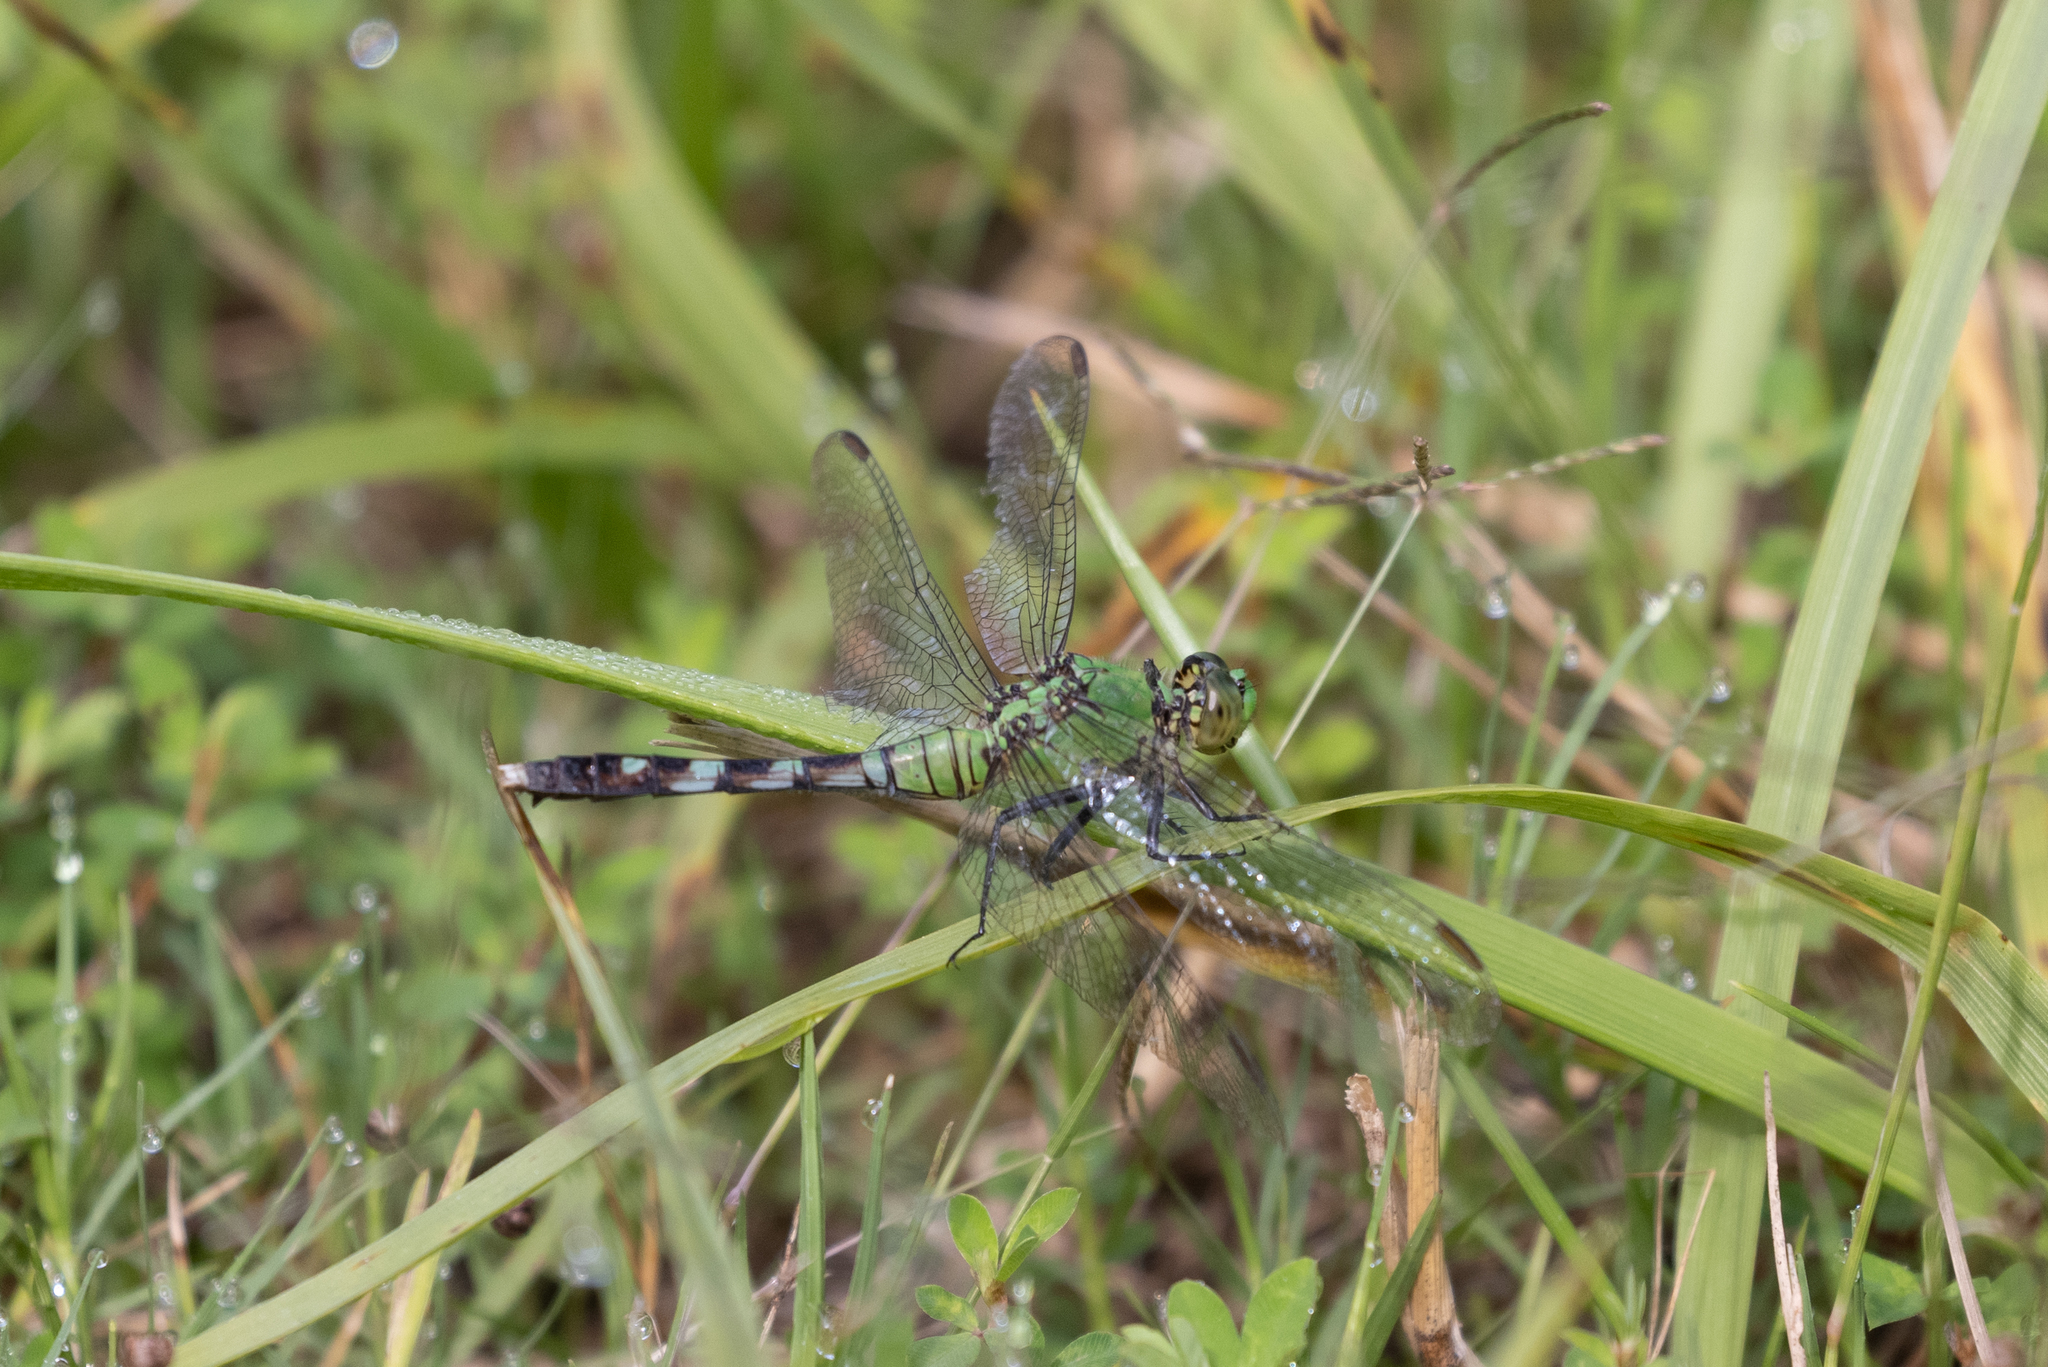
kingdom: Animalia
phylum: Arthropoda
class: Insecta
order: Odonata
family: Libellulidae
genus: Erythemis
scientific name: Erythemis simplicicollis
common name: Eastern pondhawk
